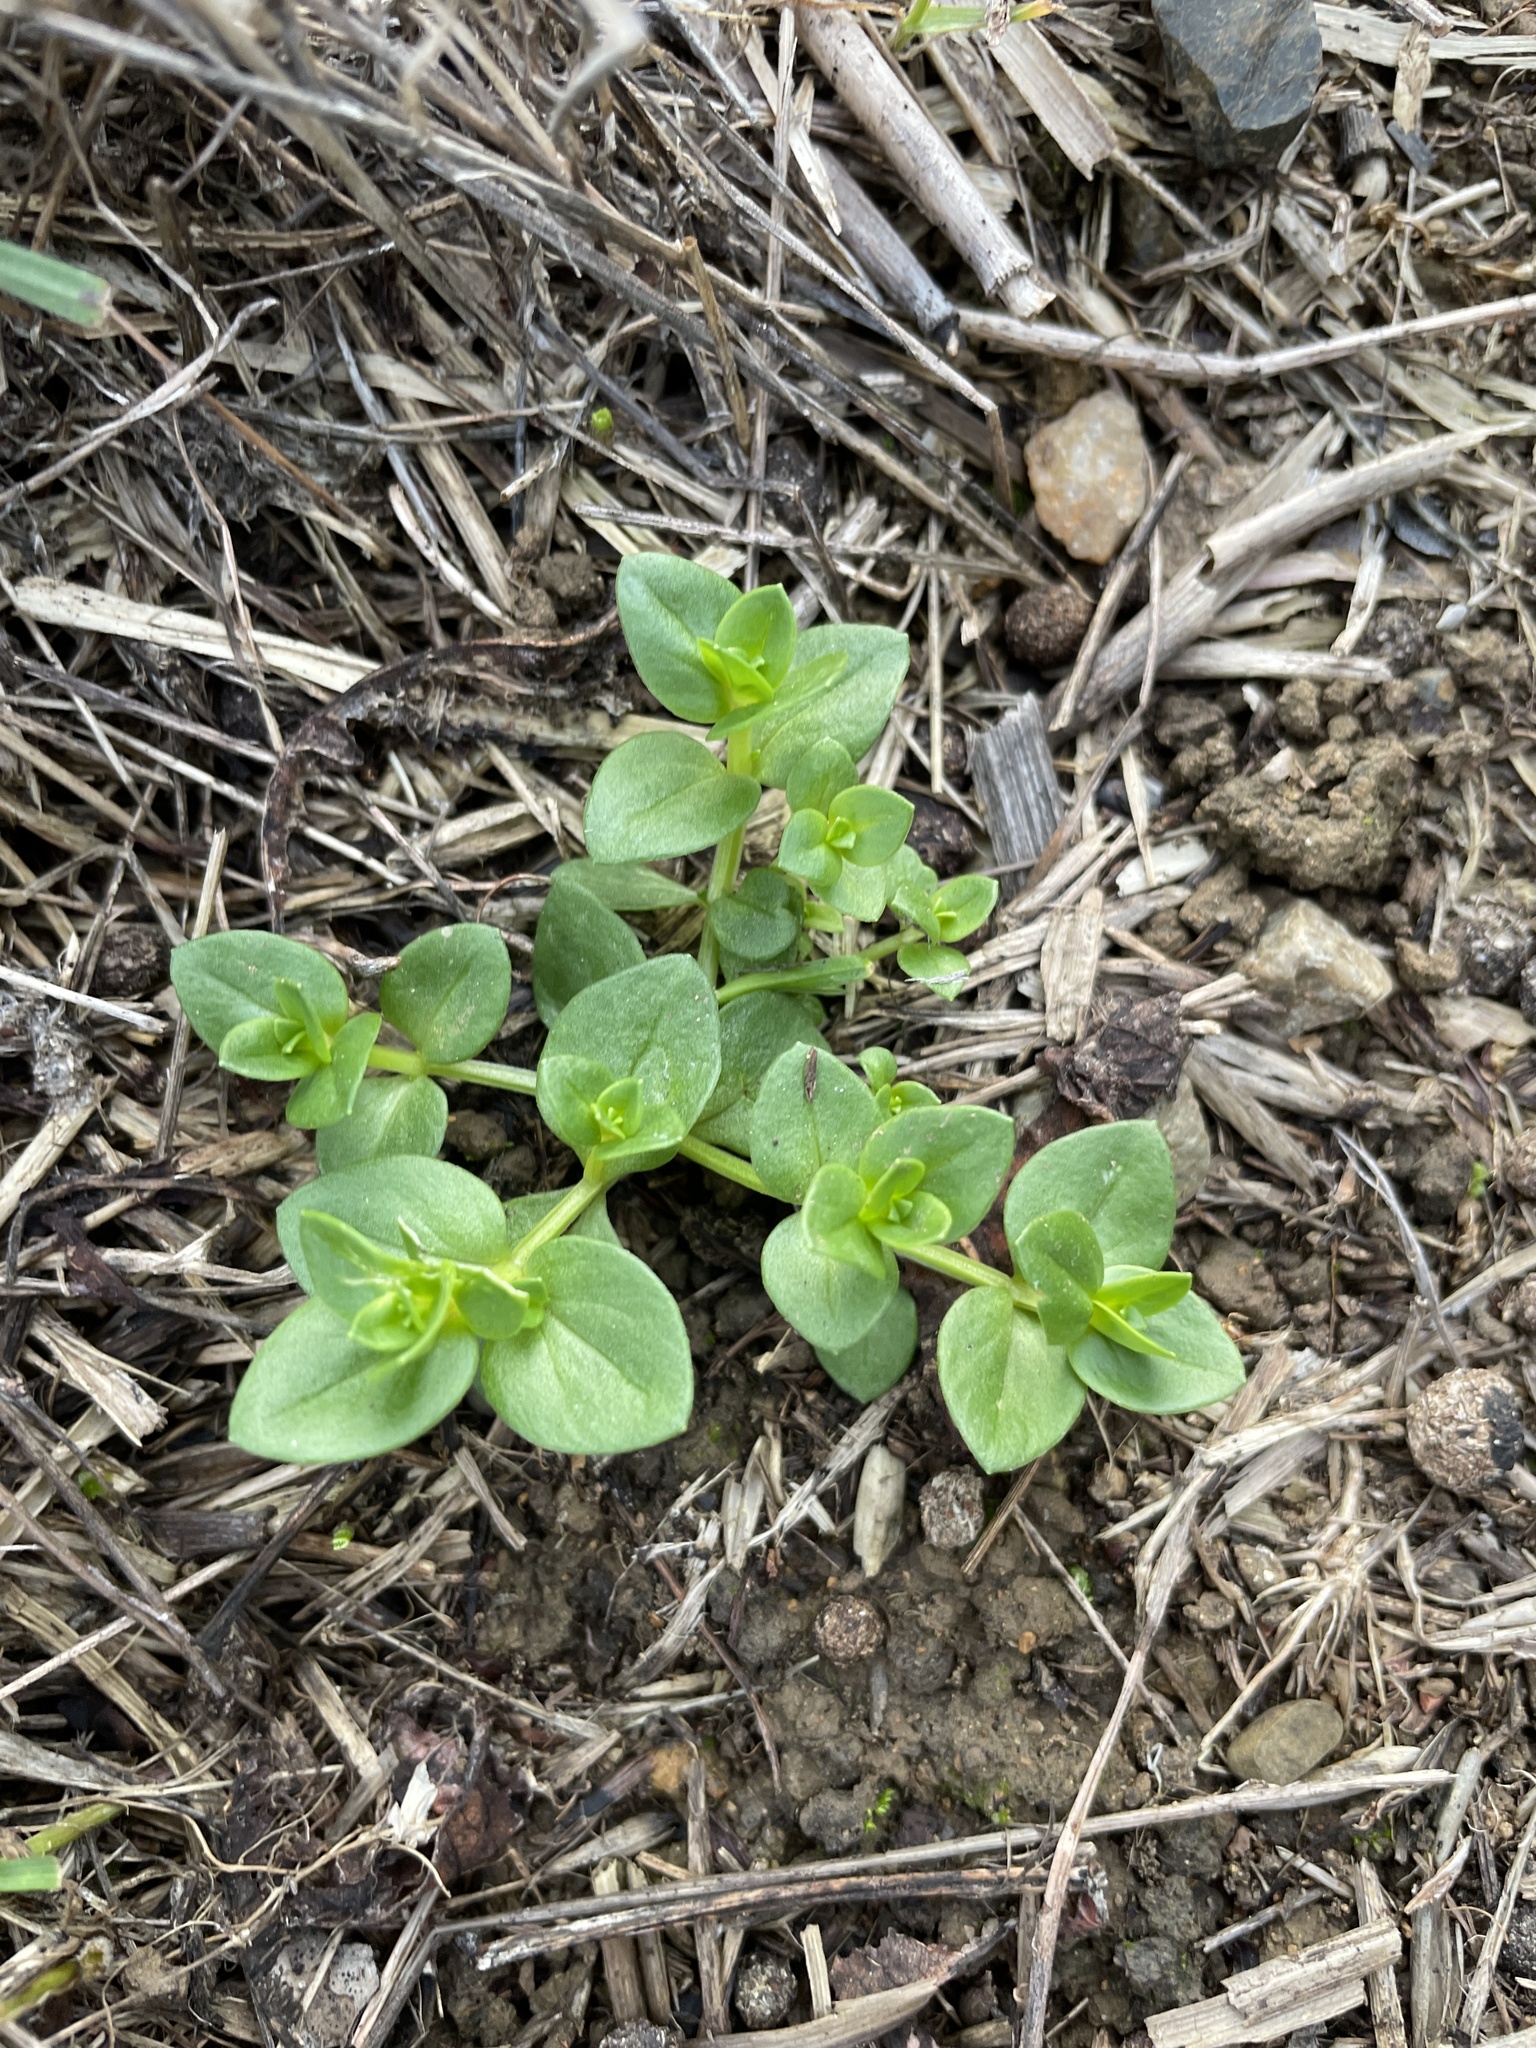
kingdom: Plantae
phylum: Tracheophyta
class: Magnoliopsida
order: Ericales
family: Primulaceae
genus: Lysimachia
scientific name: Lysimachia arvensis
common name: Scarlet pimpernel
